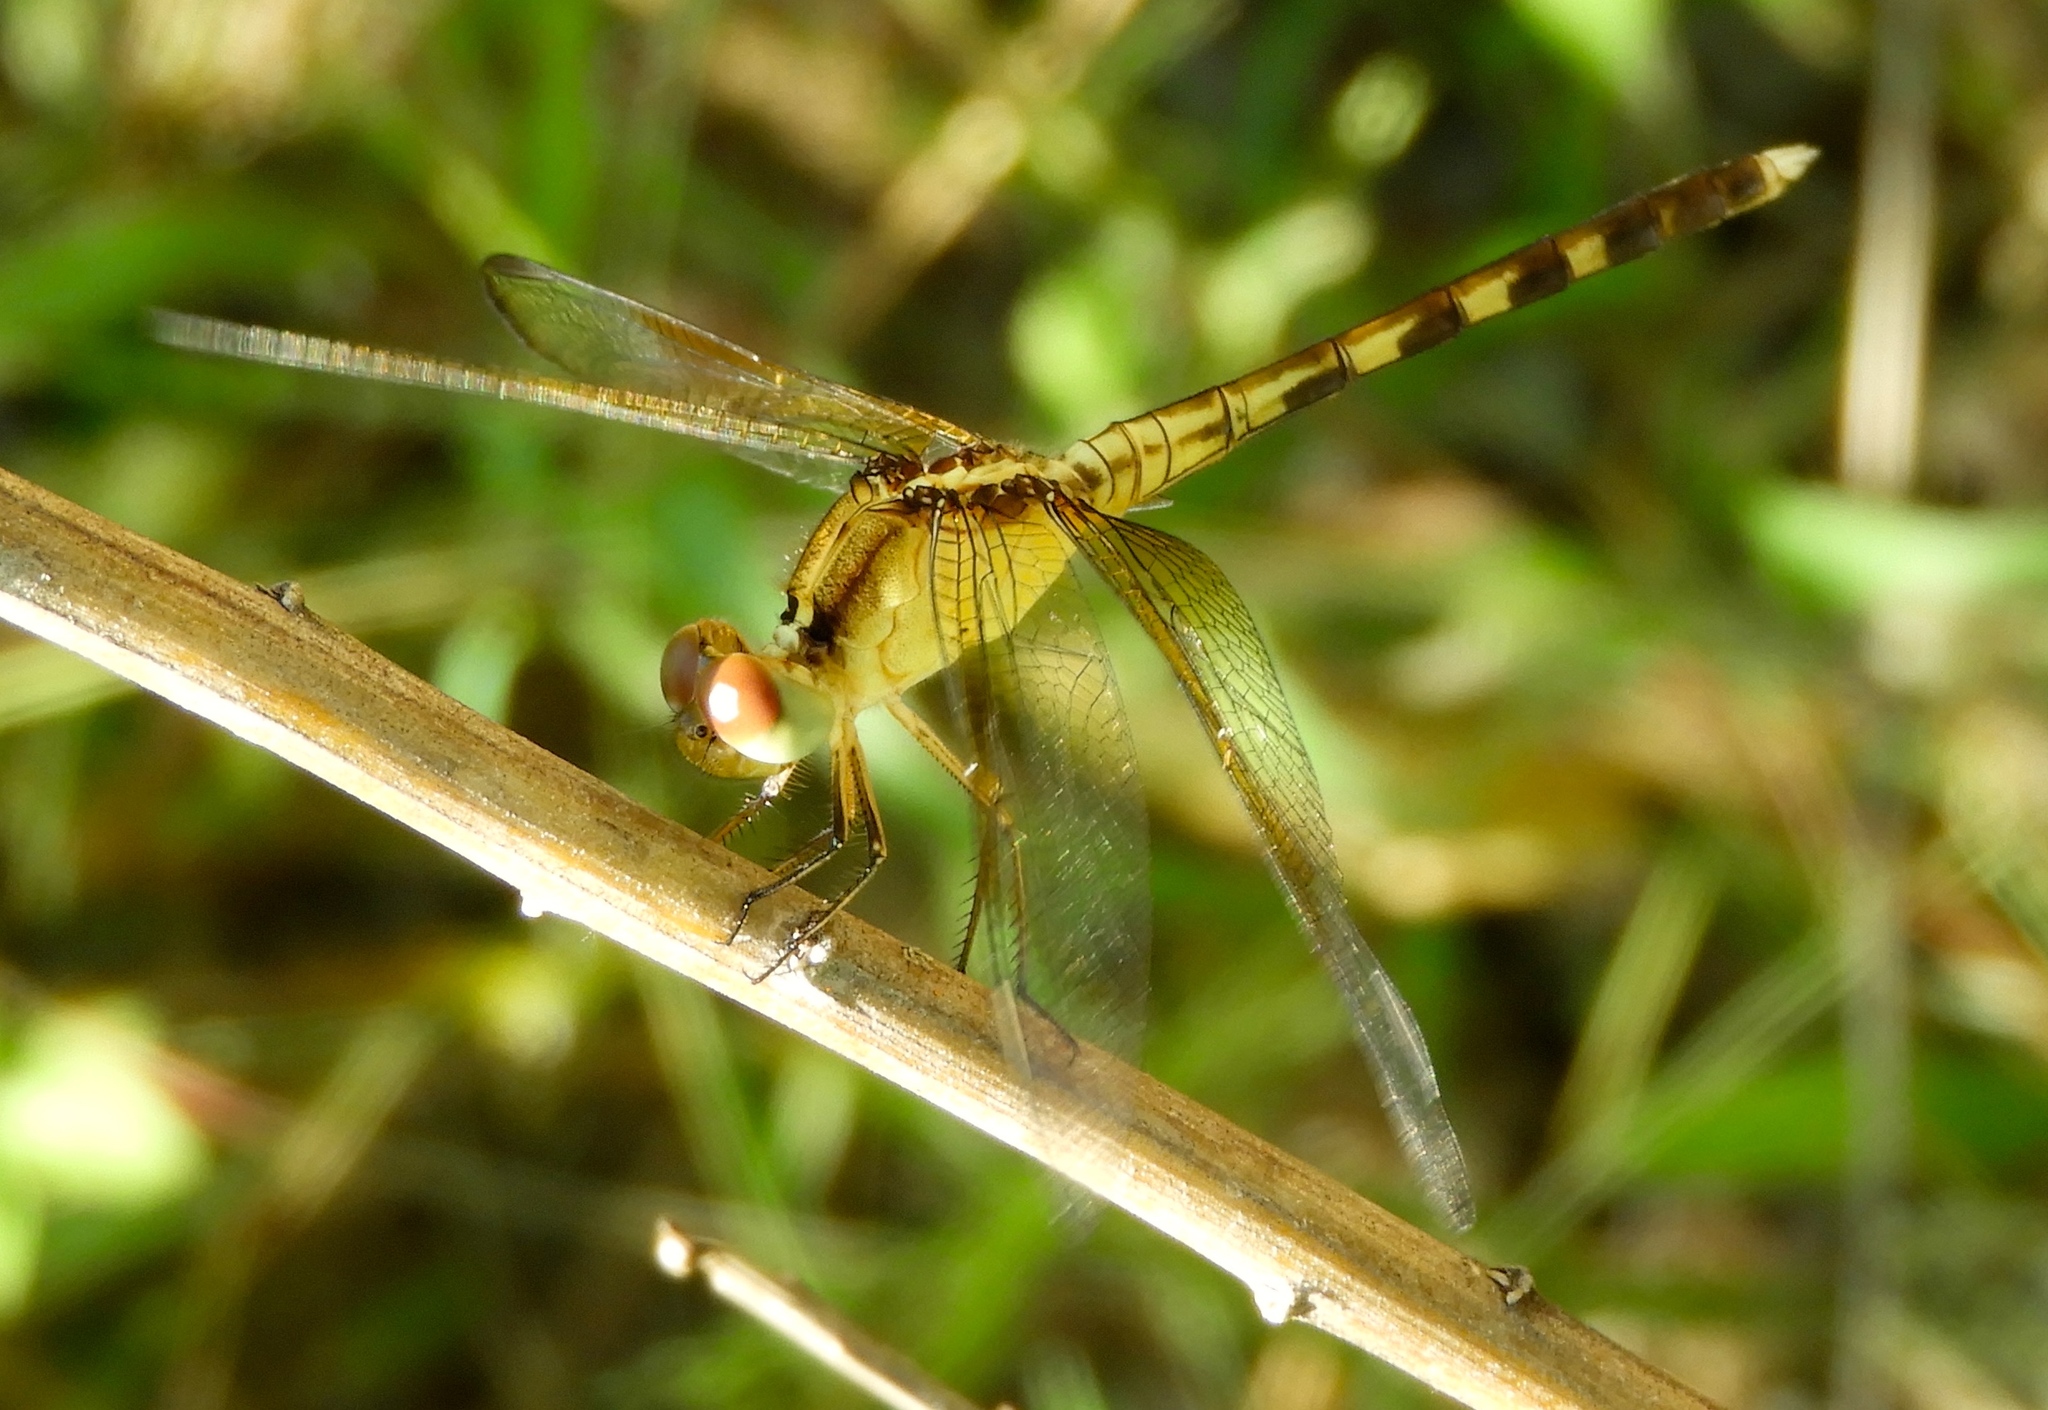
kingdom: Animalia
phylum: Arthropoda
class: Insecta
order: Odonata
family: Libellulidae
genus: Erythrodiplax
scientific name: Erythrodiplax funerea
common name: Black-winged dragonlet
